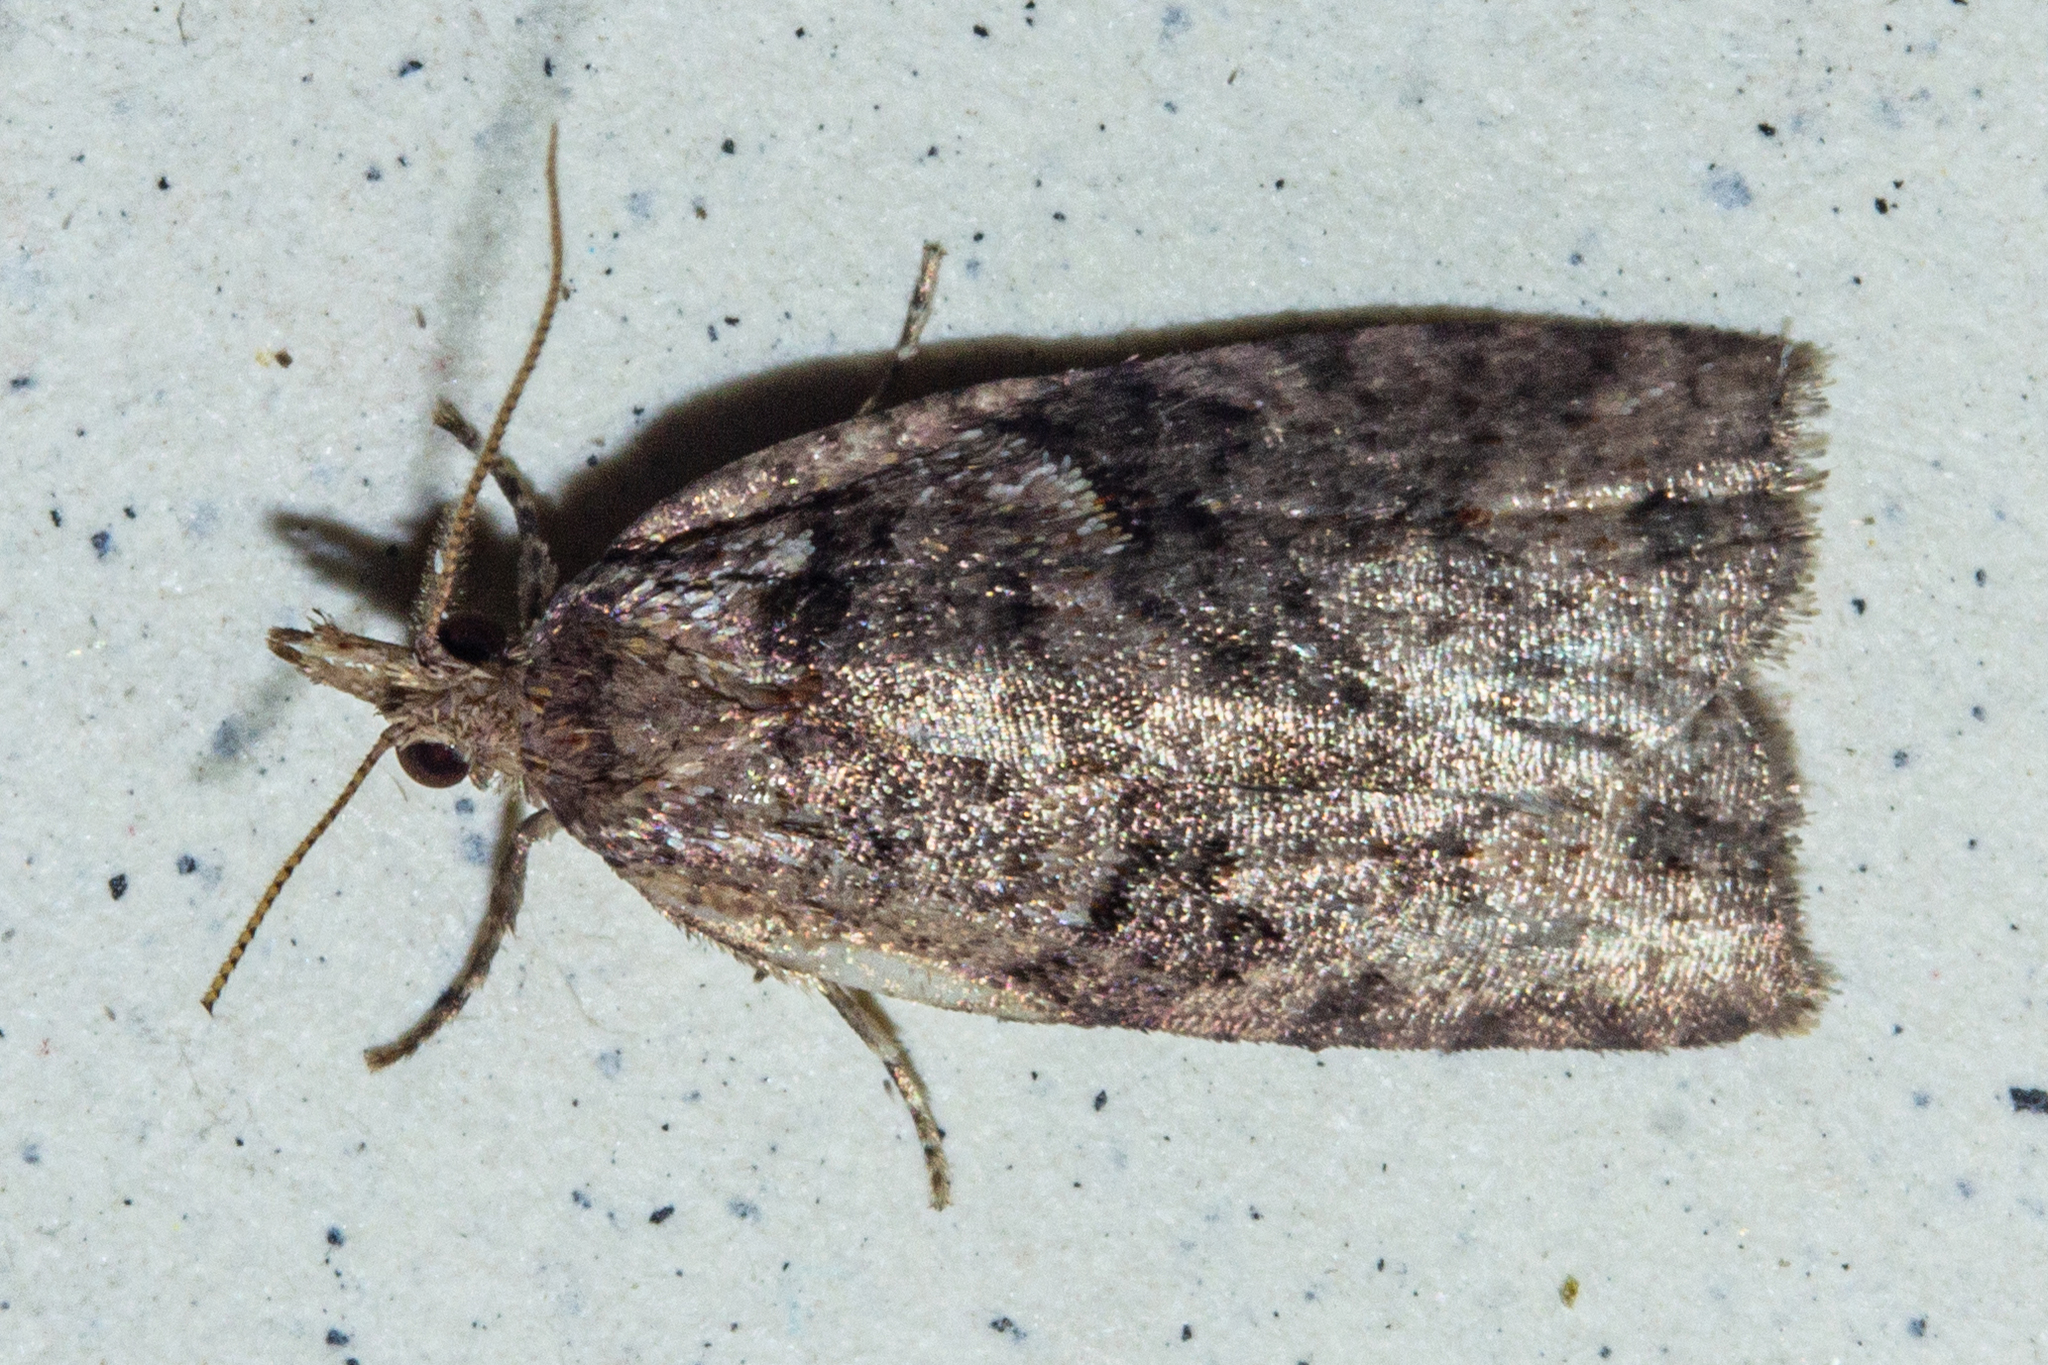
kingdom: Animalia
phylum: Arthropoda
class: Insecta
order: Lepidoptera
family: Tortricidae
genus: Ctenopseustis
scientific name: Ctenopseustis obliquana
